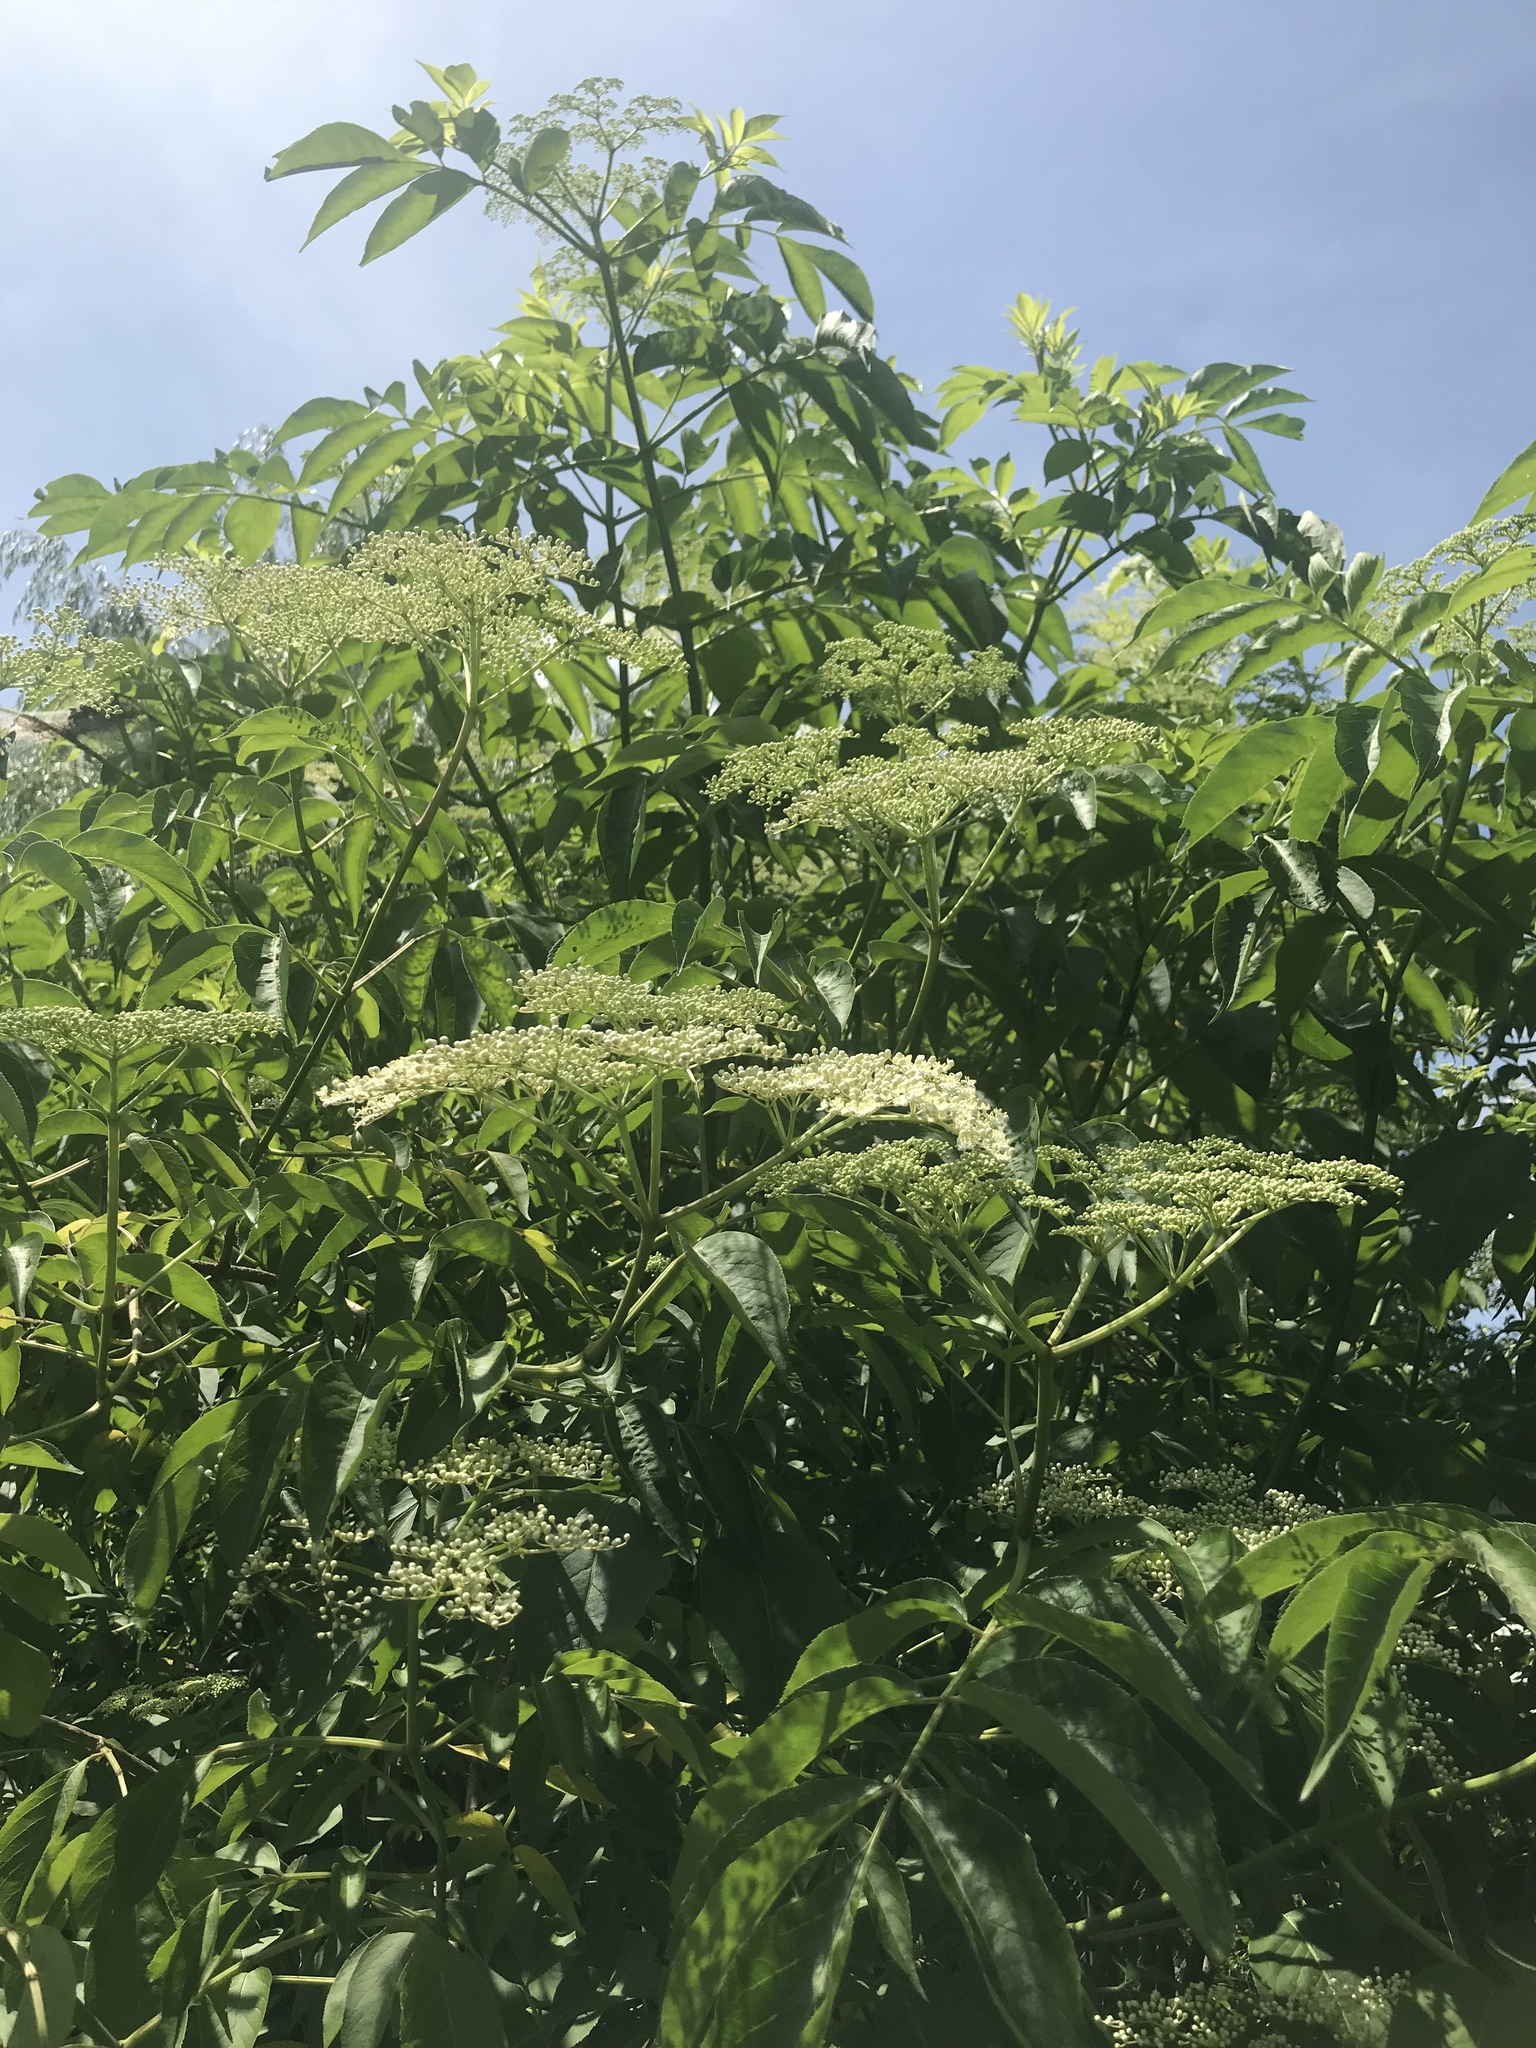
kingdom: Plantae
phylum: Tracheophyta
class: Magnoliopsida
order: Dipsacales
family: Viburnaceae
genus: Sambucus
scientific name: Sambucus canadensis
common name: American elder
